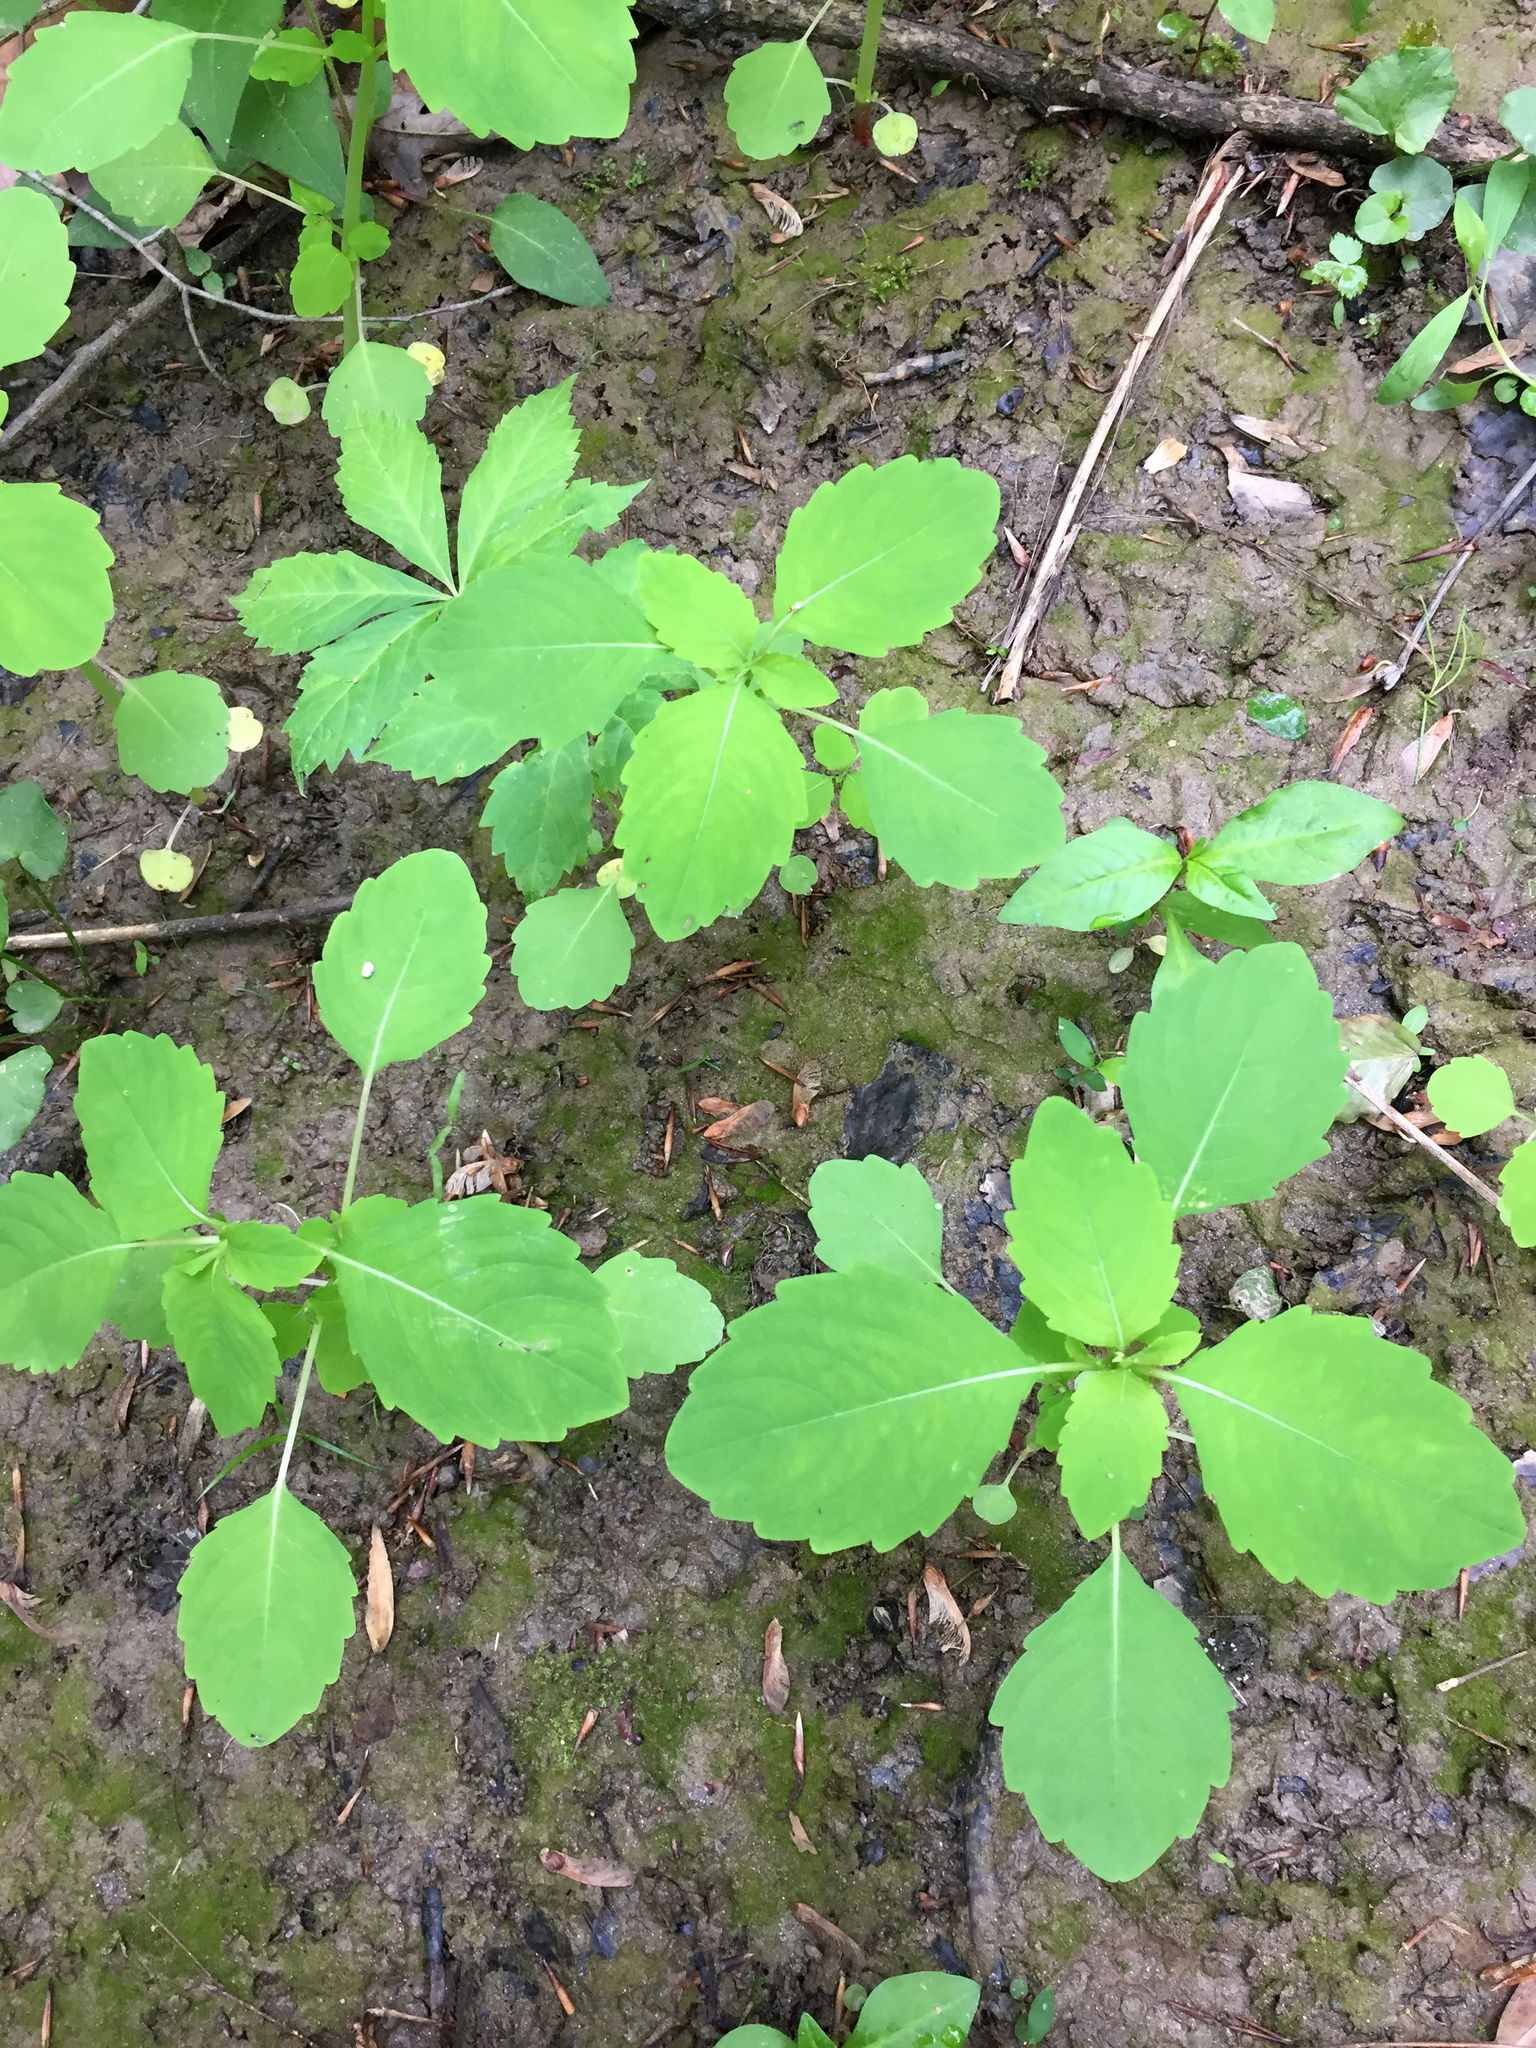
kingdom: Plantae
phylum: Tracheophyta
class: Magnoliopsida
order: Ericales
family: Balsaminaceae
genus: Impatiens
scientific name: Impatiens capensis
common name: Orange balsam
